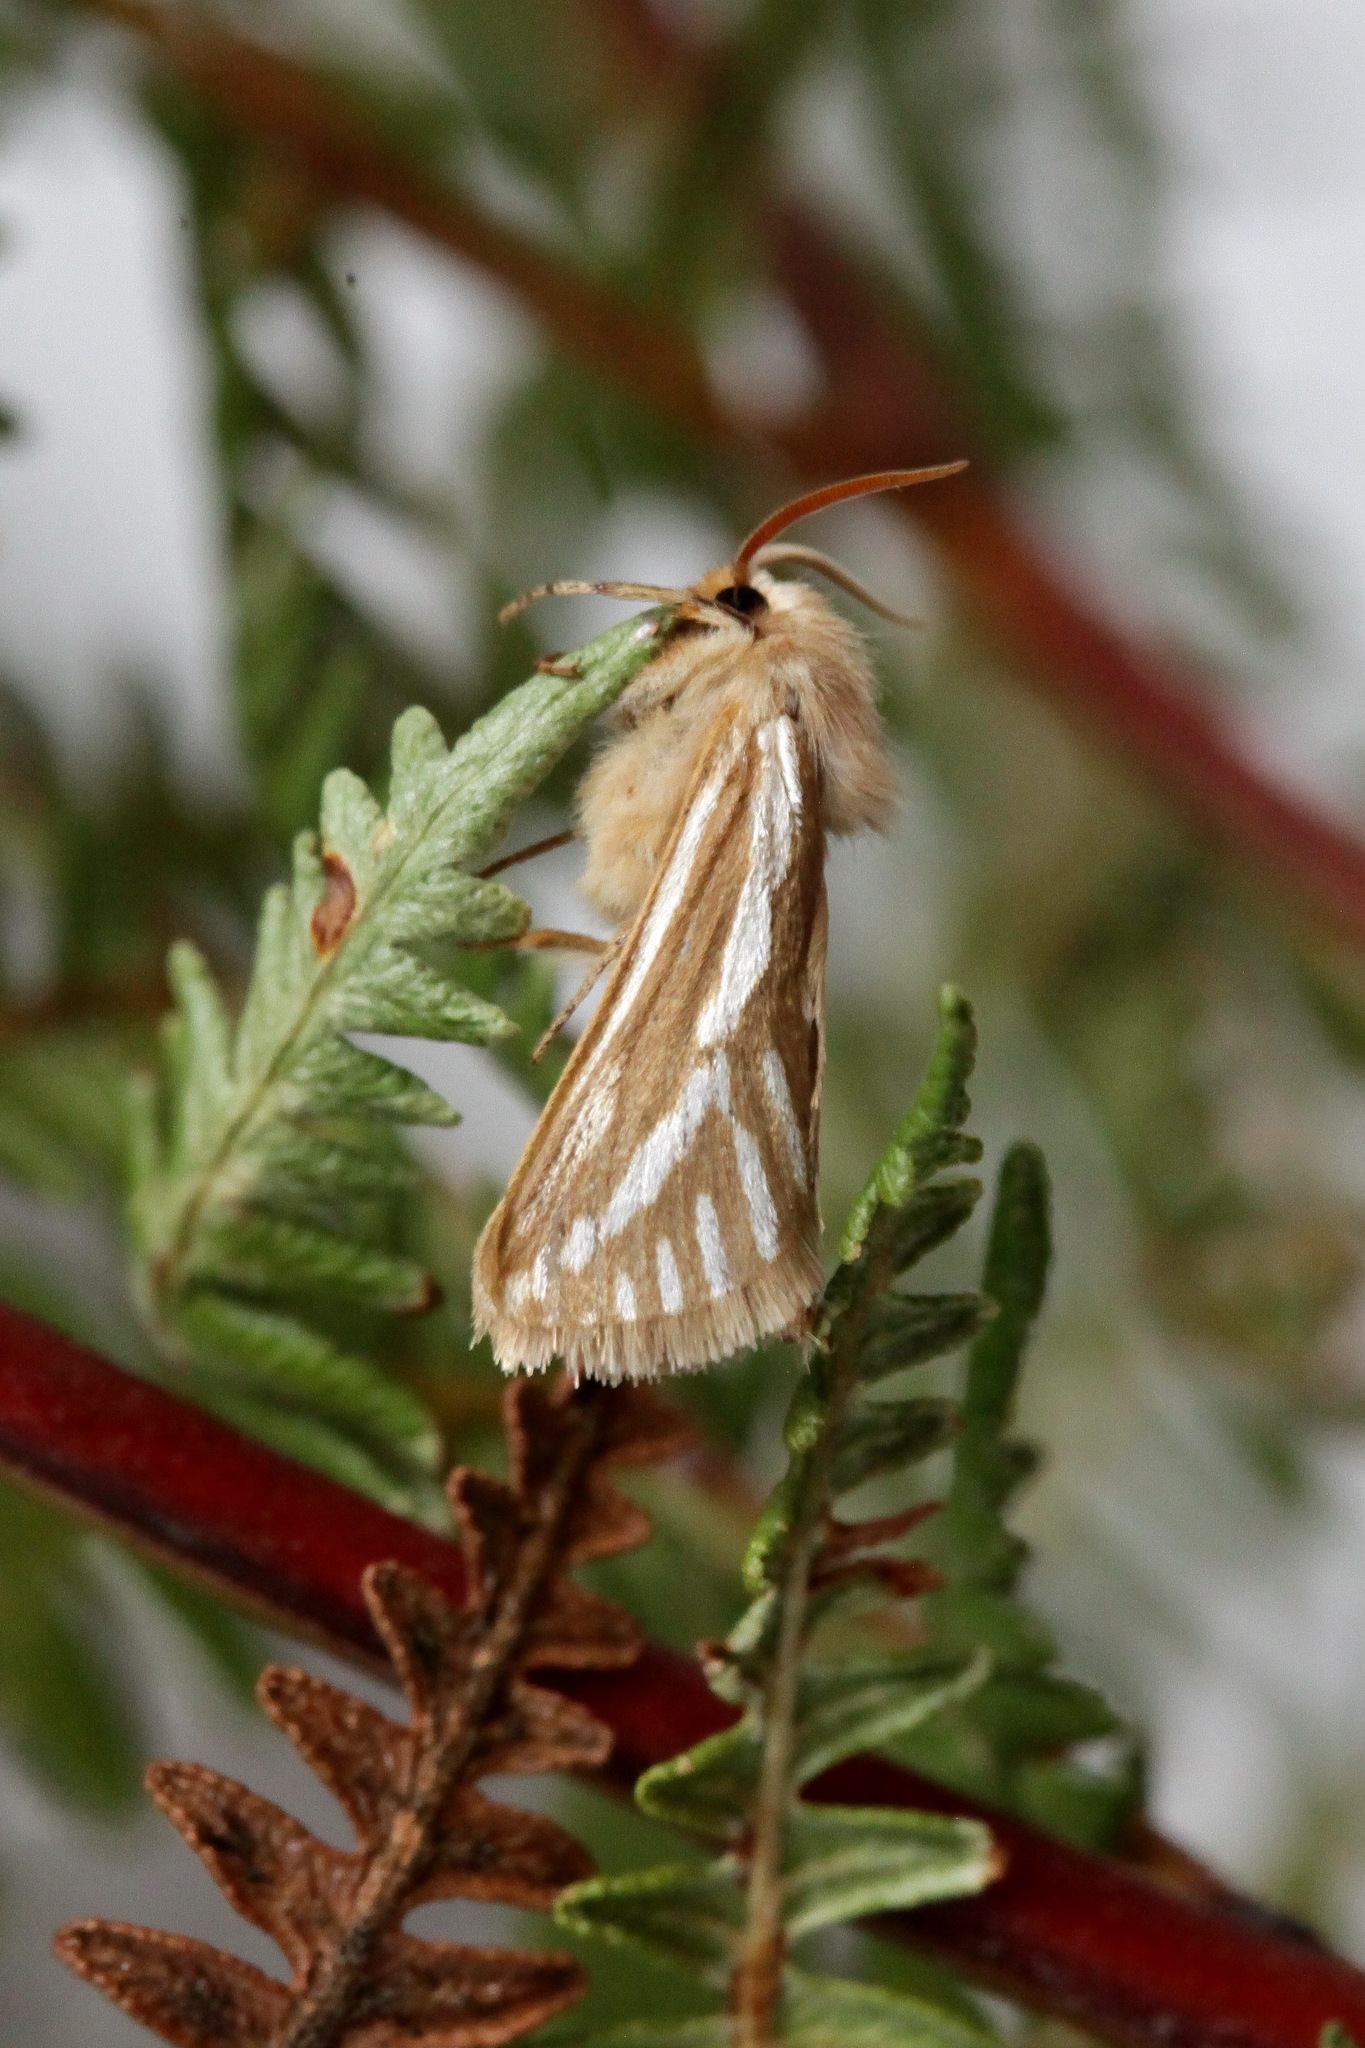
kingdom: Animalia
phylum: Arthropoda
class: Insecta
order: Lepidoptera
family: Hepialidae
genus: Eudalaca
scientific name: Eudalaca semicanus
